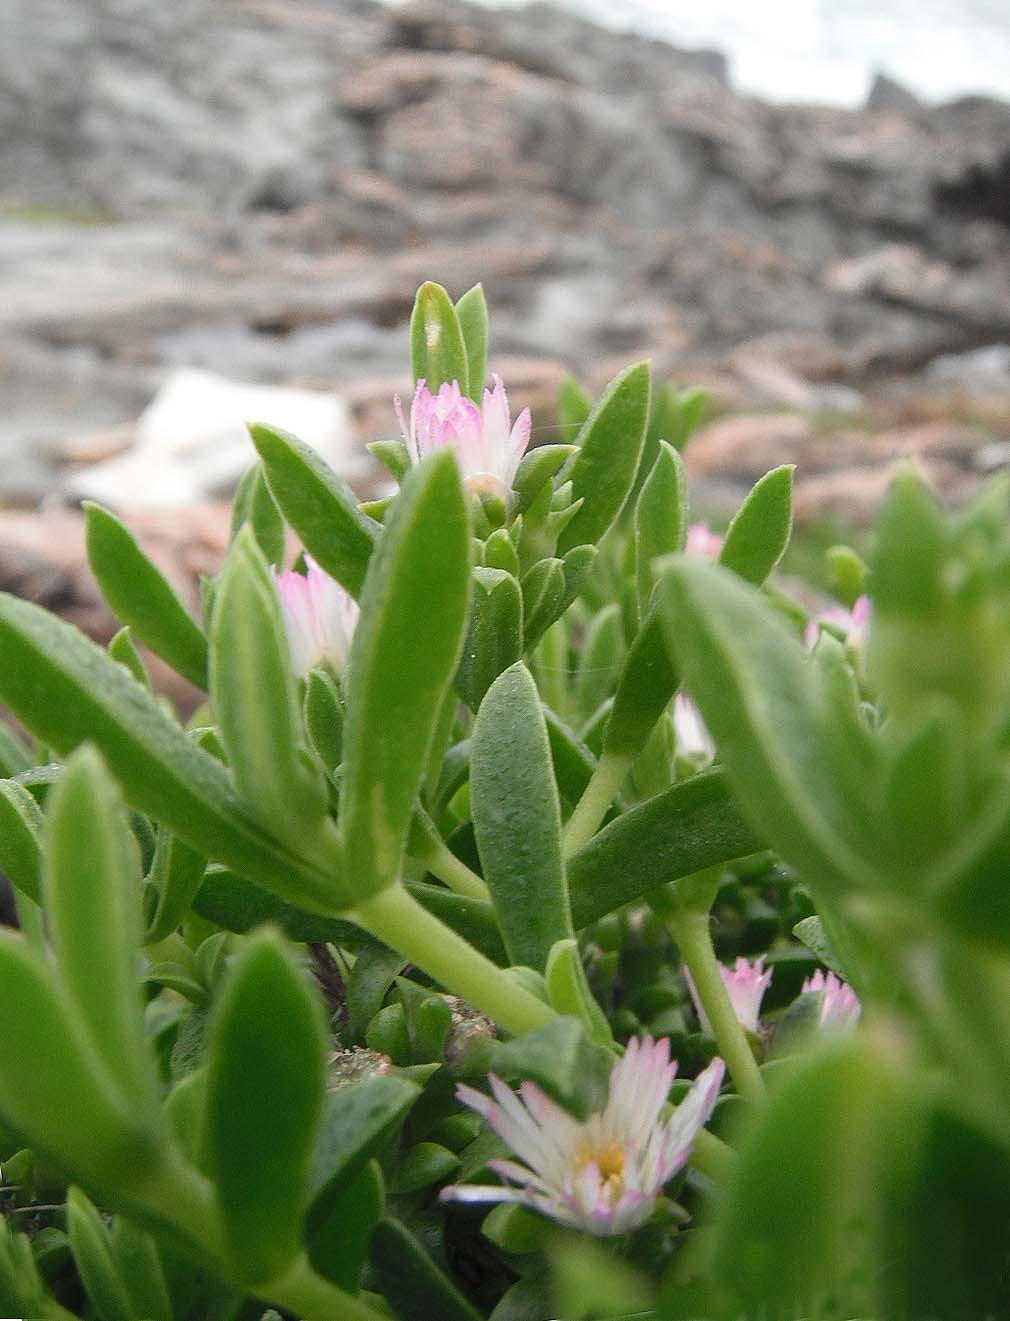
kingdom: Plantae
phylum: Tracheophyta
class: Magnoliopsida
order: Caryophyllales
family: Aizoaceae
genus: Delosperma
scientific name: Delosperma patersoniae
